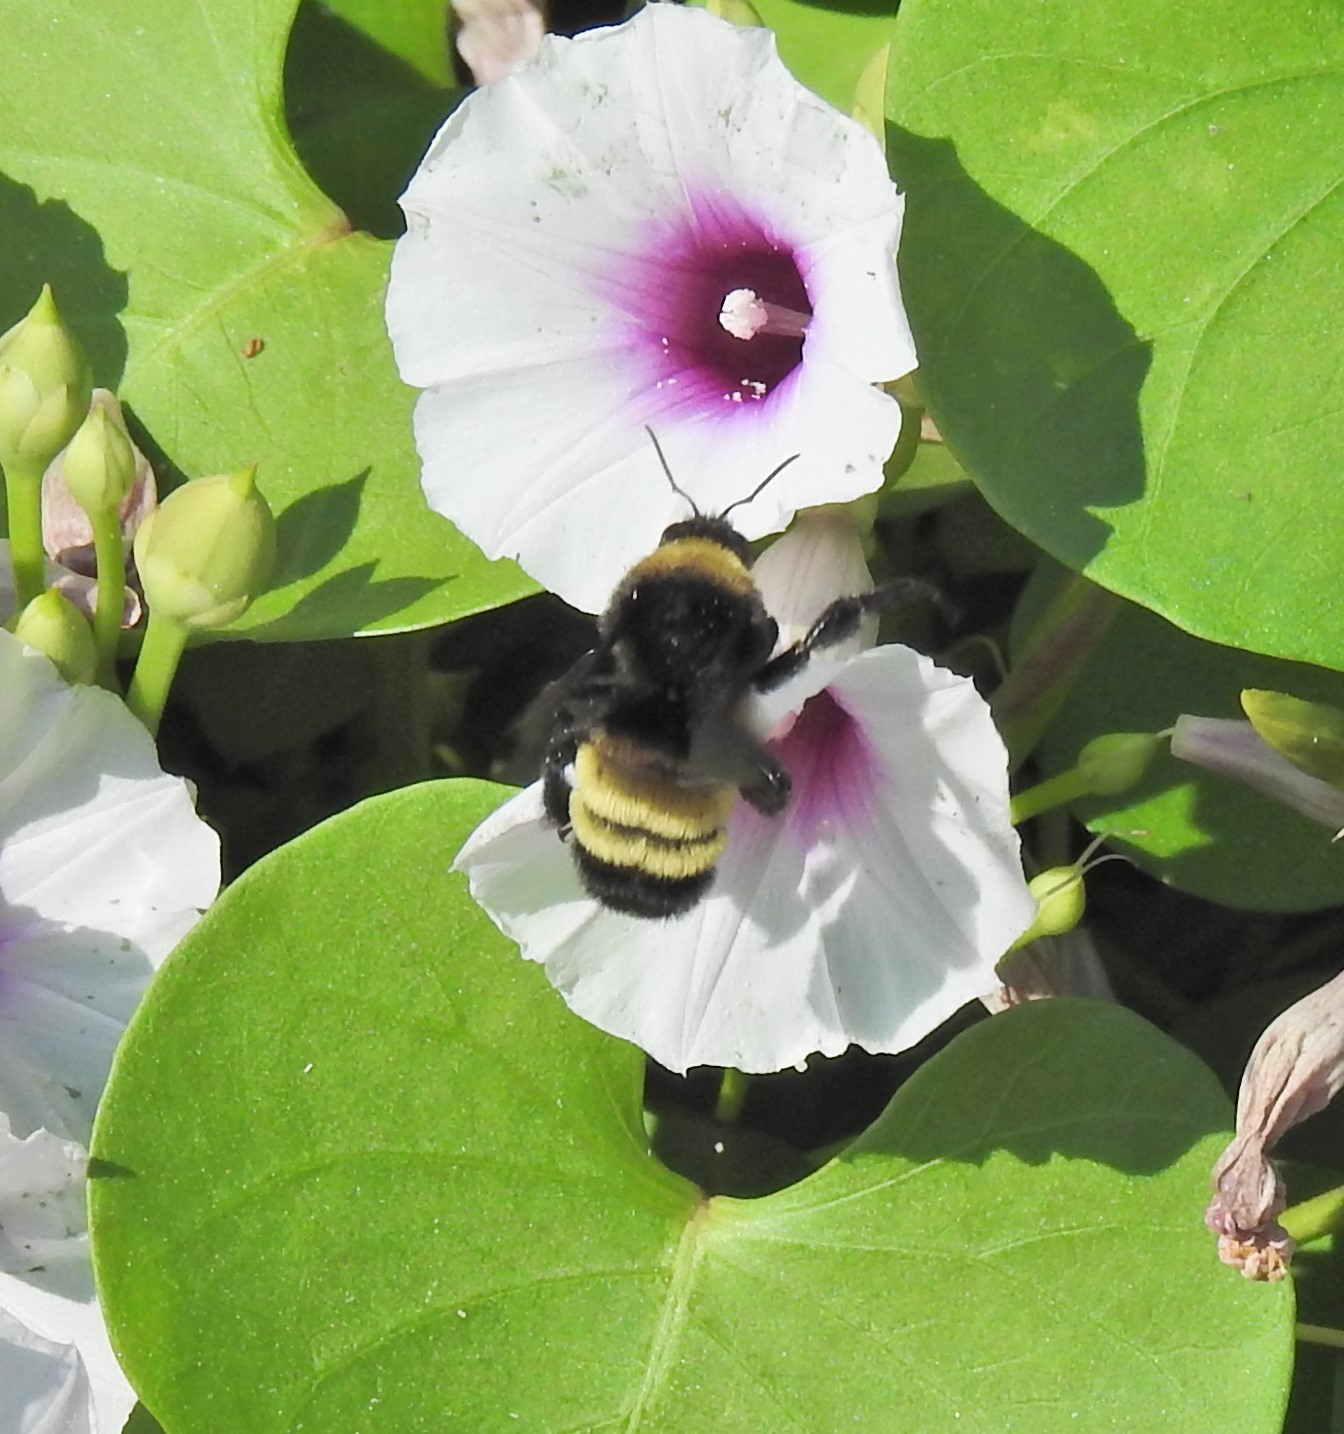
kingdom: Animalia
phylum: Arthropoda
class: Insecta
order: Hymenoptera
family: Apidae
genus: Bombus
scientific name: Bombus pensylvanicus
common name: Bumble bee
